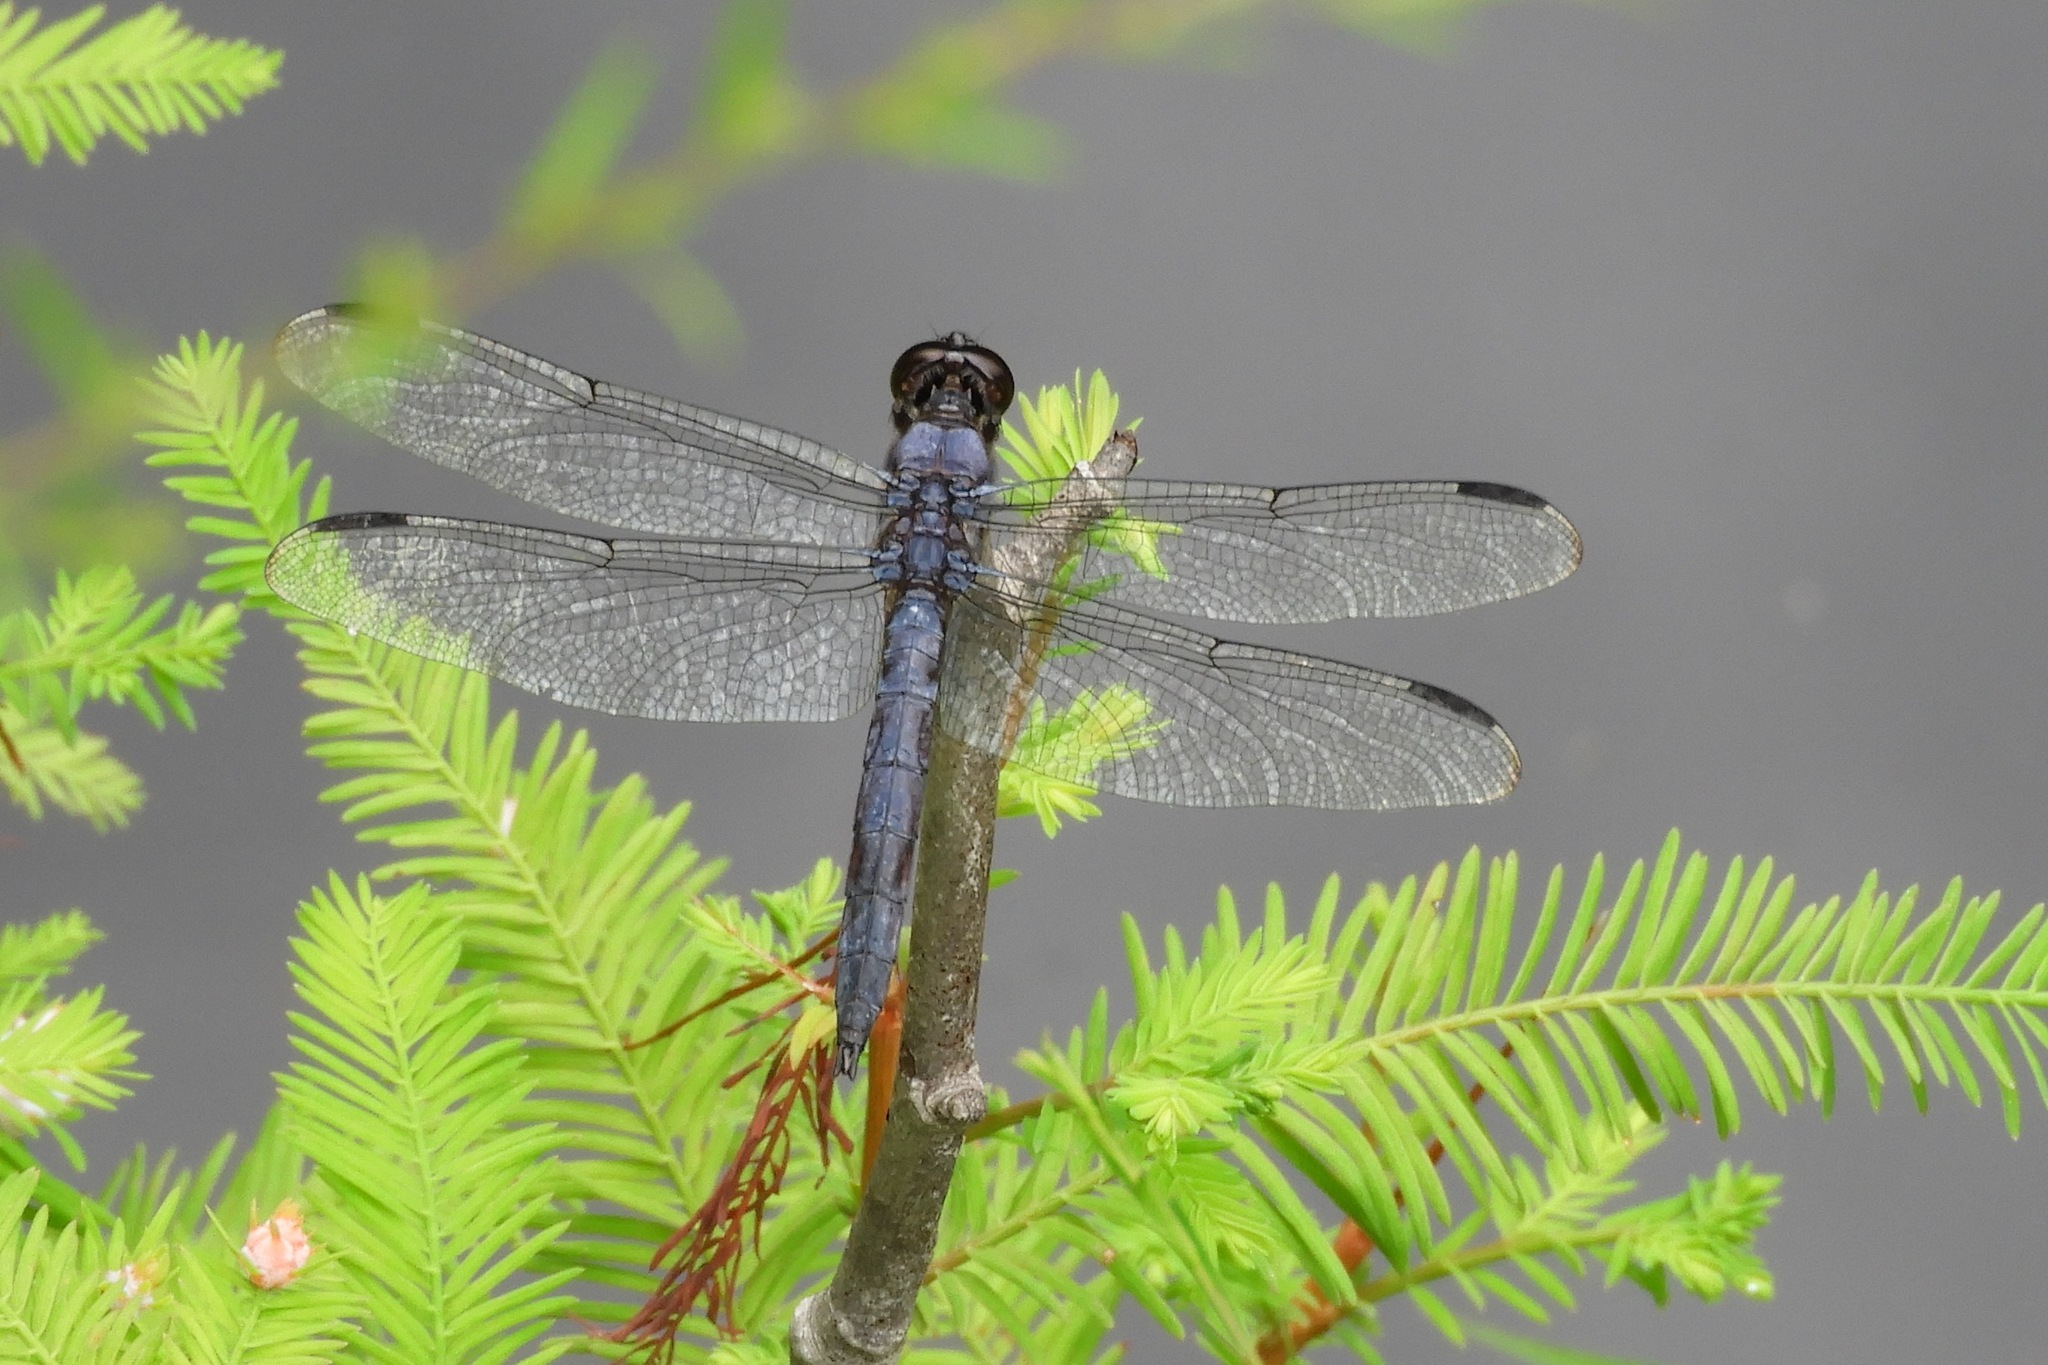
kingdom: Animalia
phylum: Arthropoda
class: Insecta
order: Odonata
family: Libellulidae
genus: Libellula
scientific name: Libellula incesta
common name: Slaty skimmer
